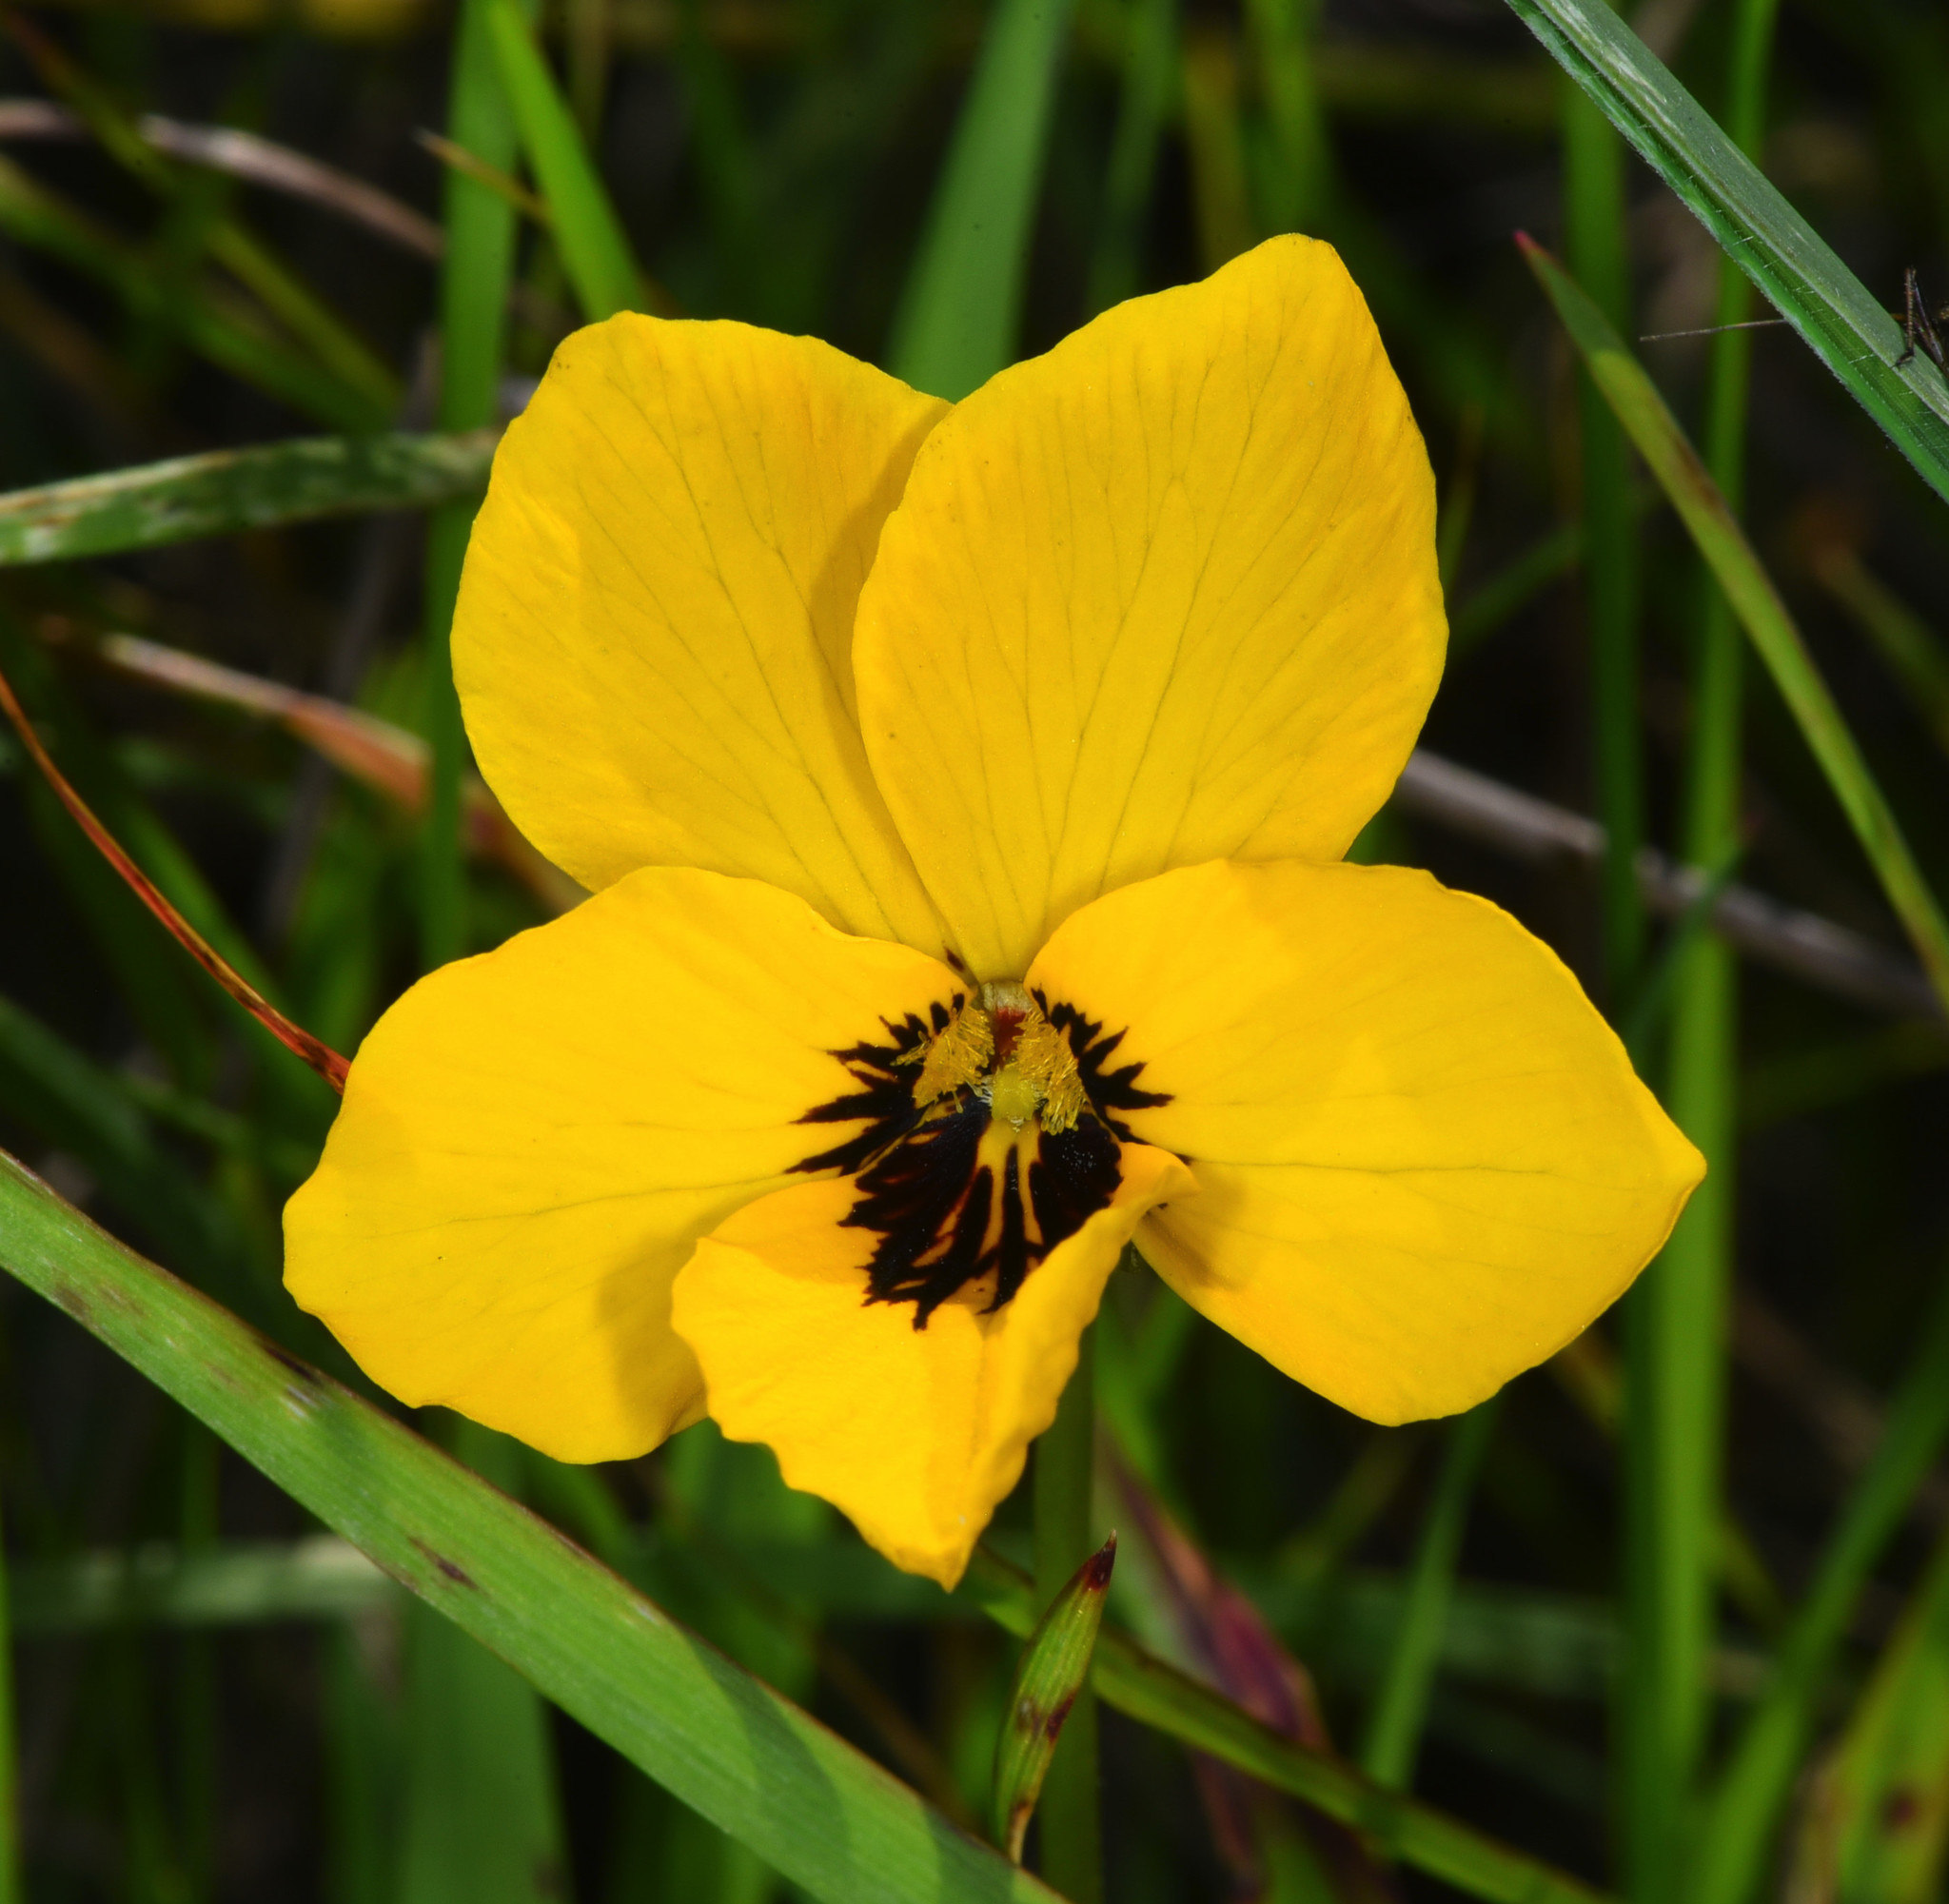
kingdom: Plantae
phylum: Tracheophyta
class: Magnoliopsida
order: Malpighiales
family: Violaceae
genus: Viola
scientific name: Viola pedunculata
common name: California golden violet
